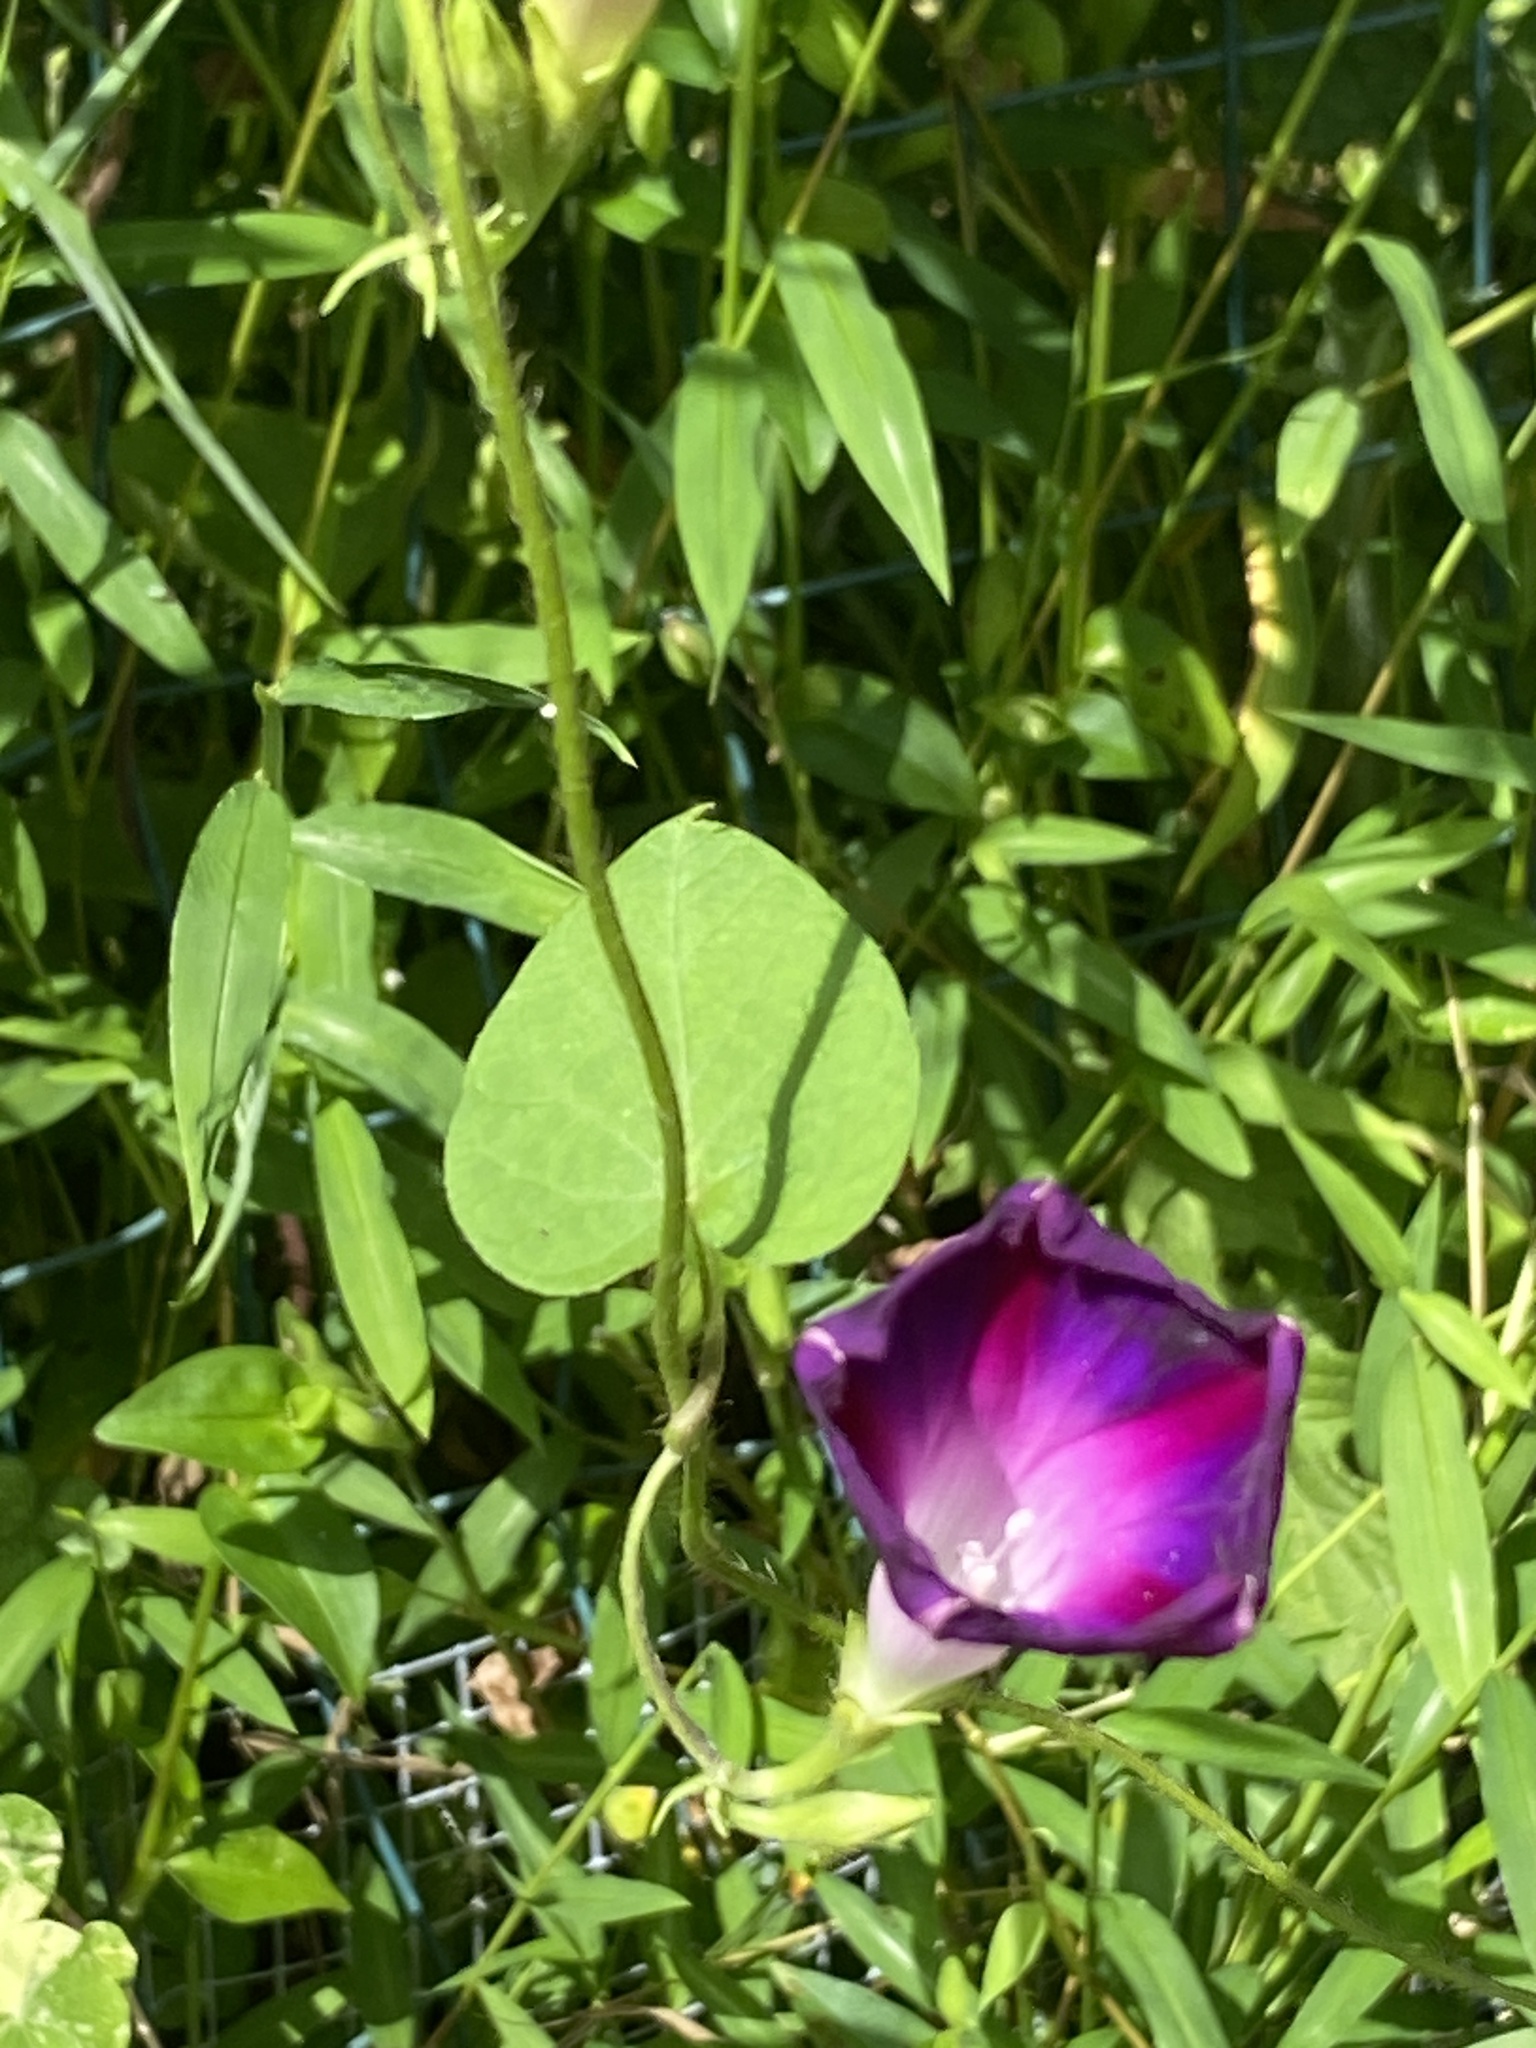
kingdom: Plantae
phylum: Tracheophyta
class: Magnoliopsida
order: Solanales
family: Convolvulaceae
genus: Ipomoea
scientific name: Ipomoea purpurea
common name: Common morning-glory
